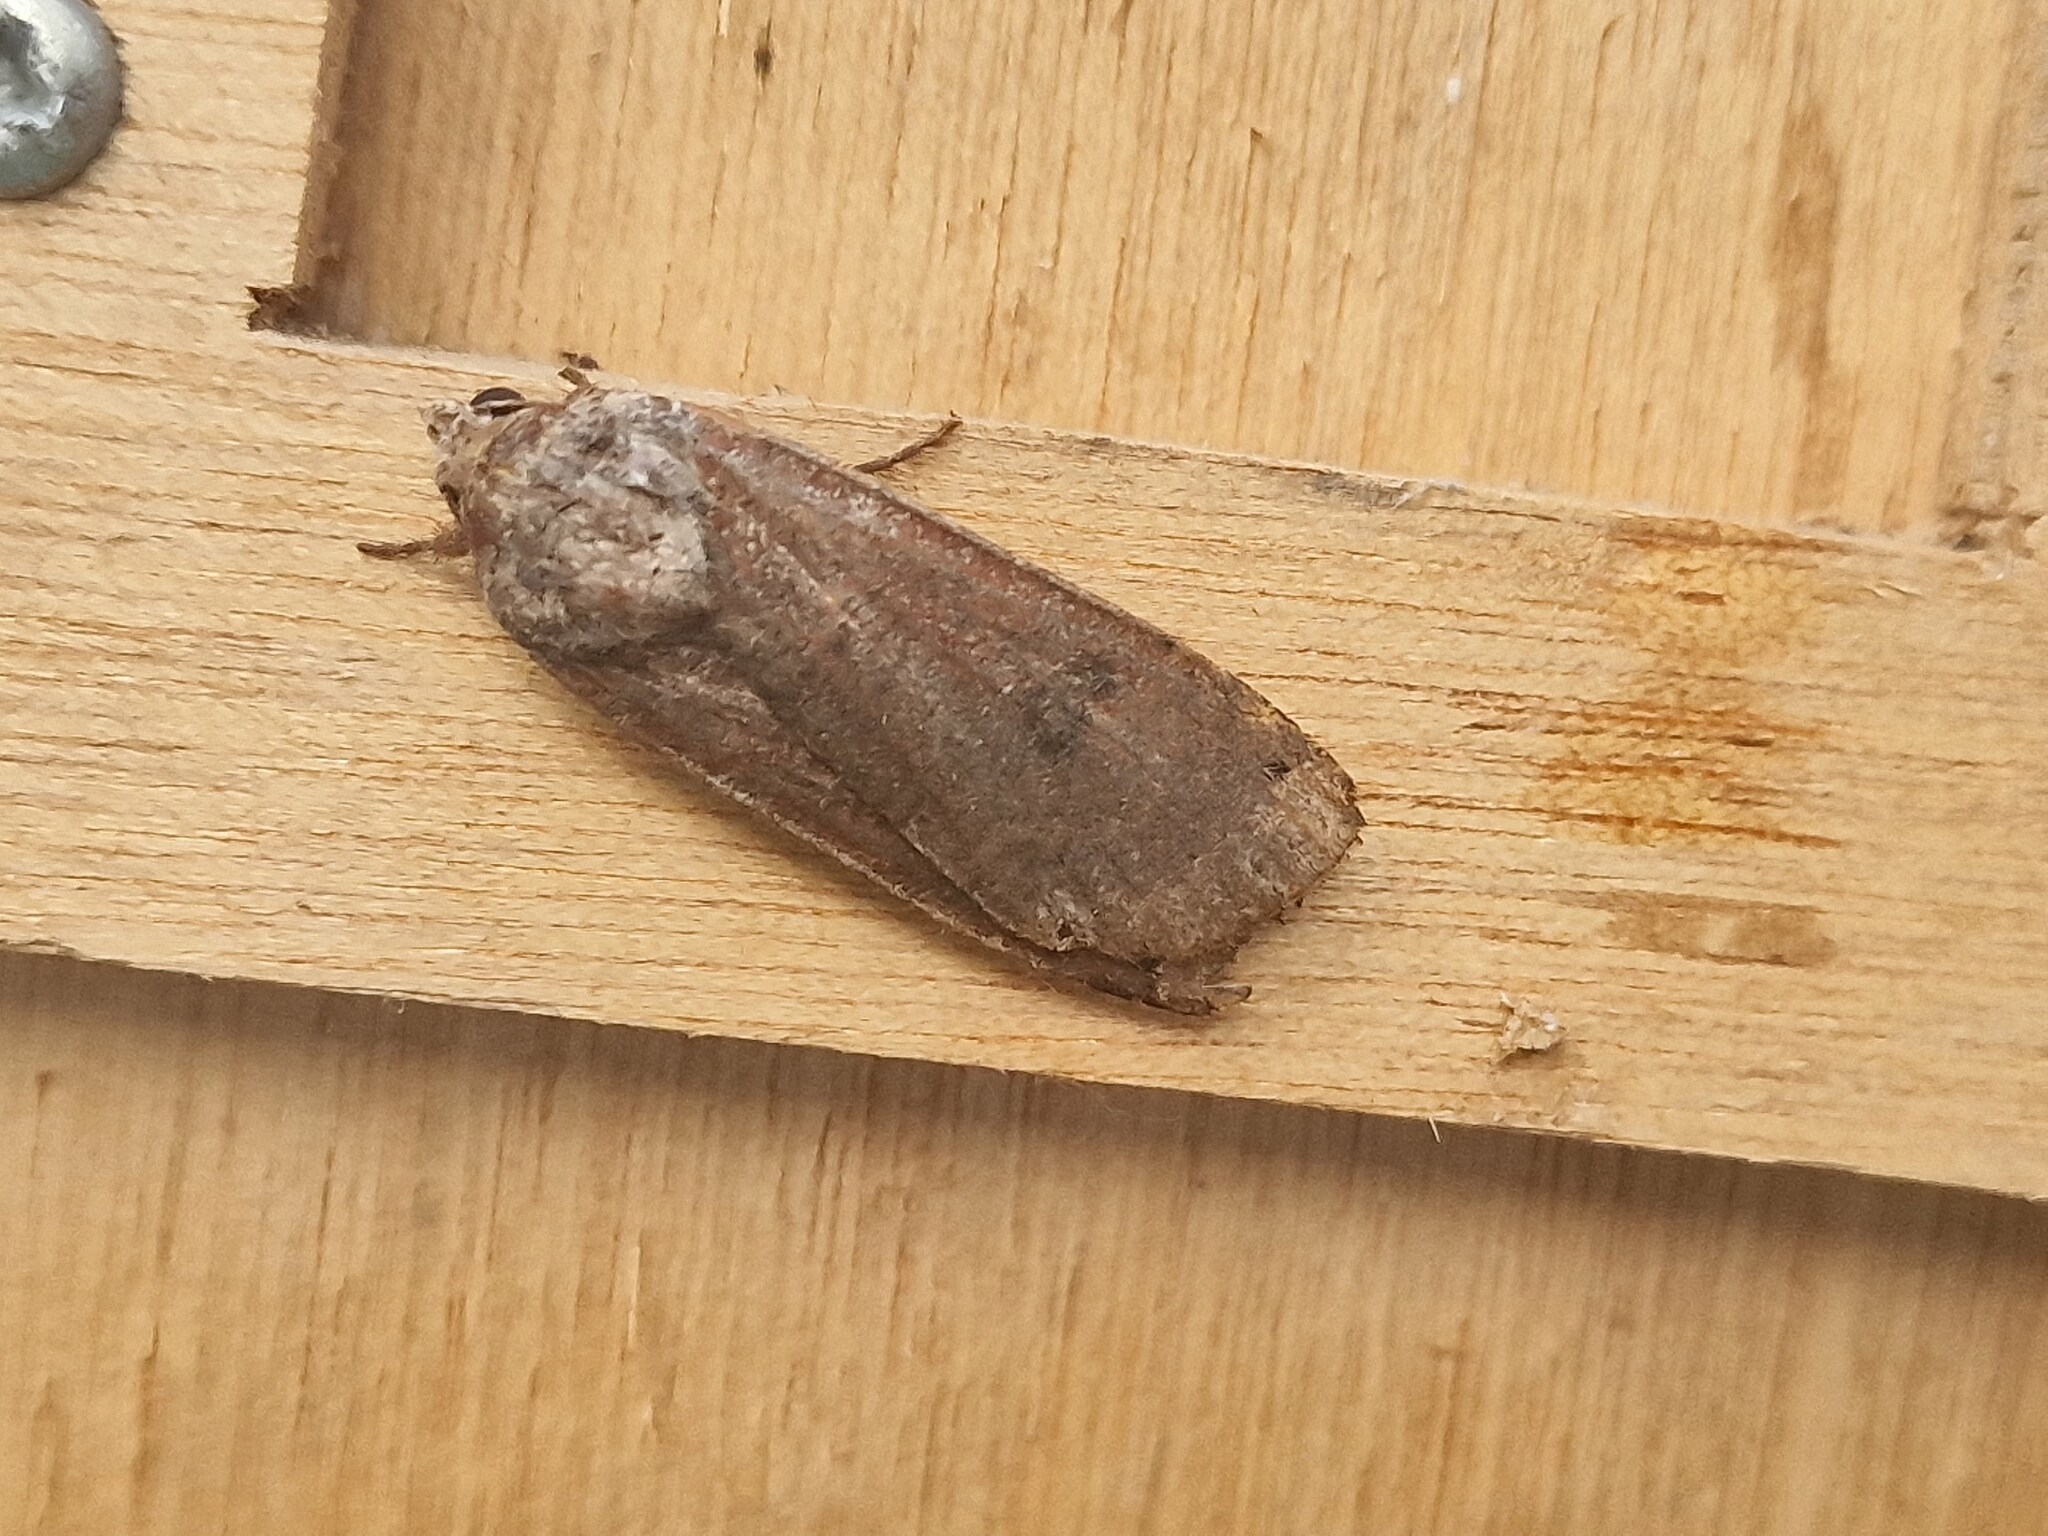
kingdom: Animalia
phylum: Arthropoda
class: Insecta
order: Lepidoptera
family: Noctuidae
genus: Noctua
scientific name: Noctua pronuba
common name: Large yellow underwing
